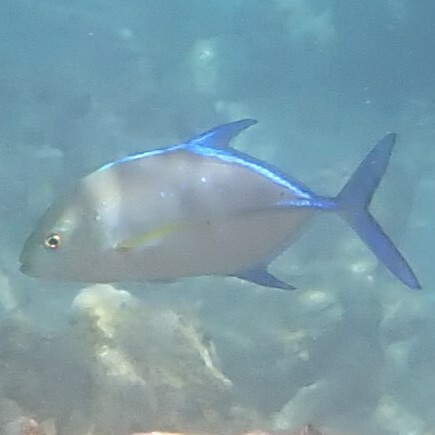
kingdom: Animalia
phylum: Chordata
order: Perciformes
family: Carangidae
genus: Caranx
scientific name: Caranx melampygus
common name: Bluefin trevally
